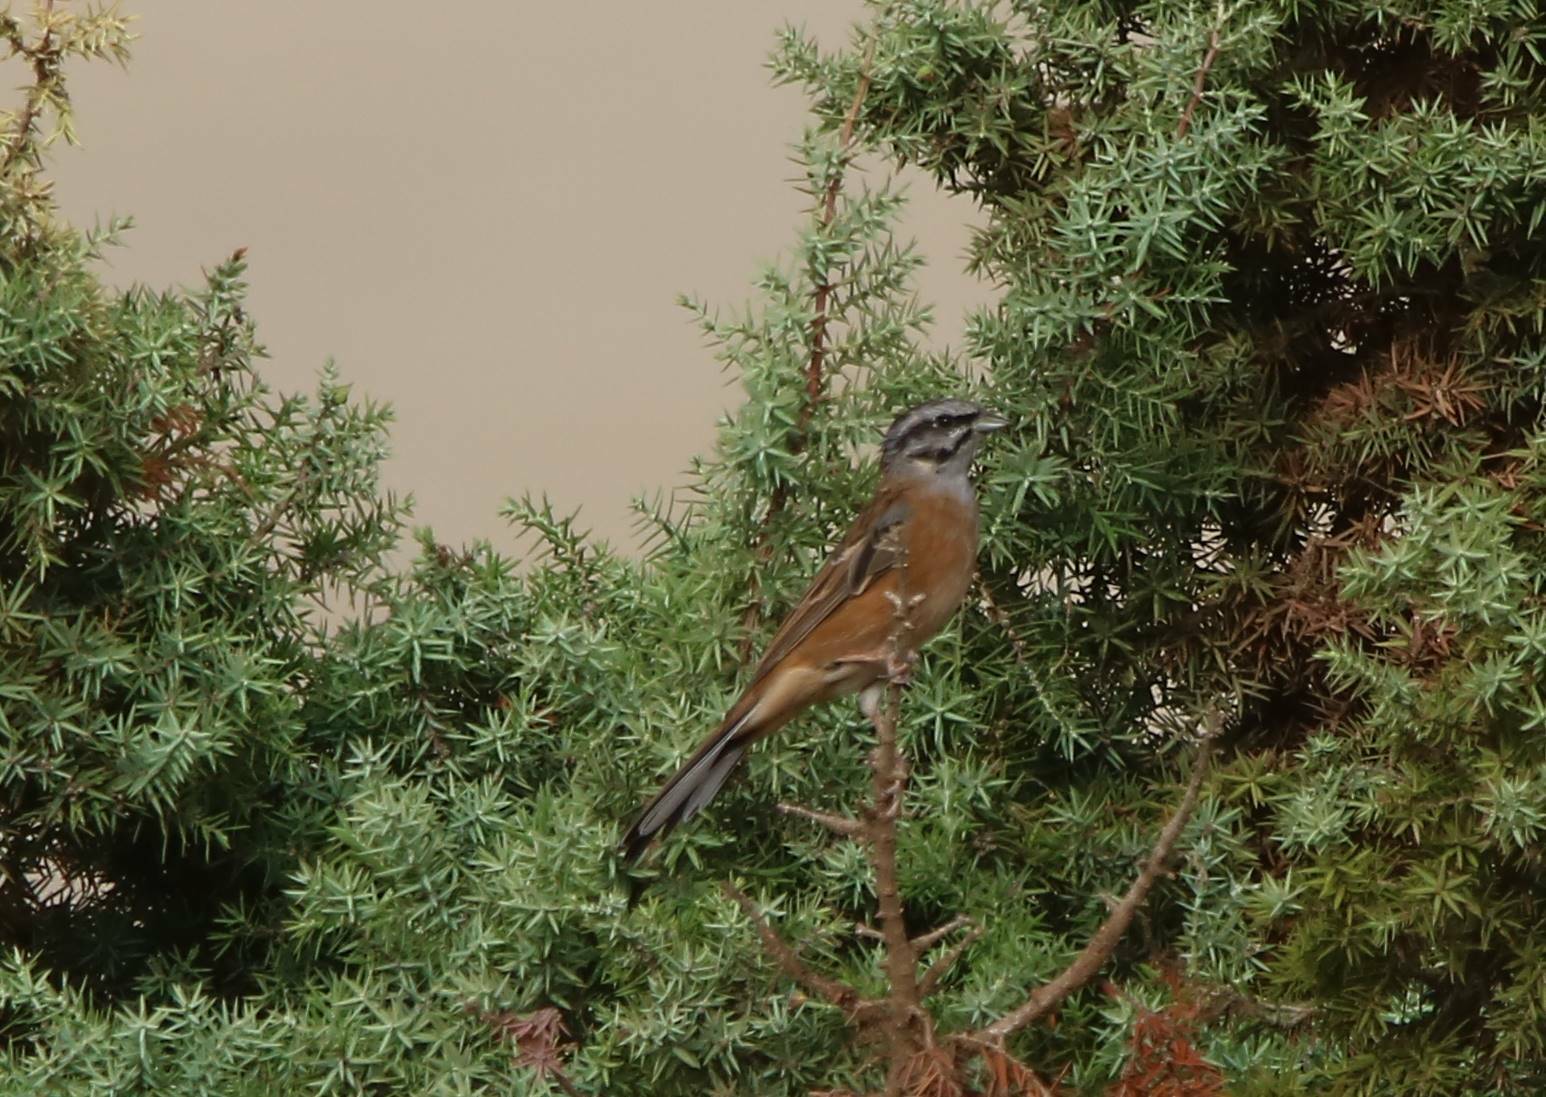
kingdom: Animalia
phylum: Chordata
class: Aves
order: Passeriformes
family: Emberizidae
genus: Emberiza
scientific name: Emberiza cia
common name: Rock bunting
